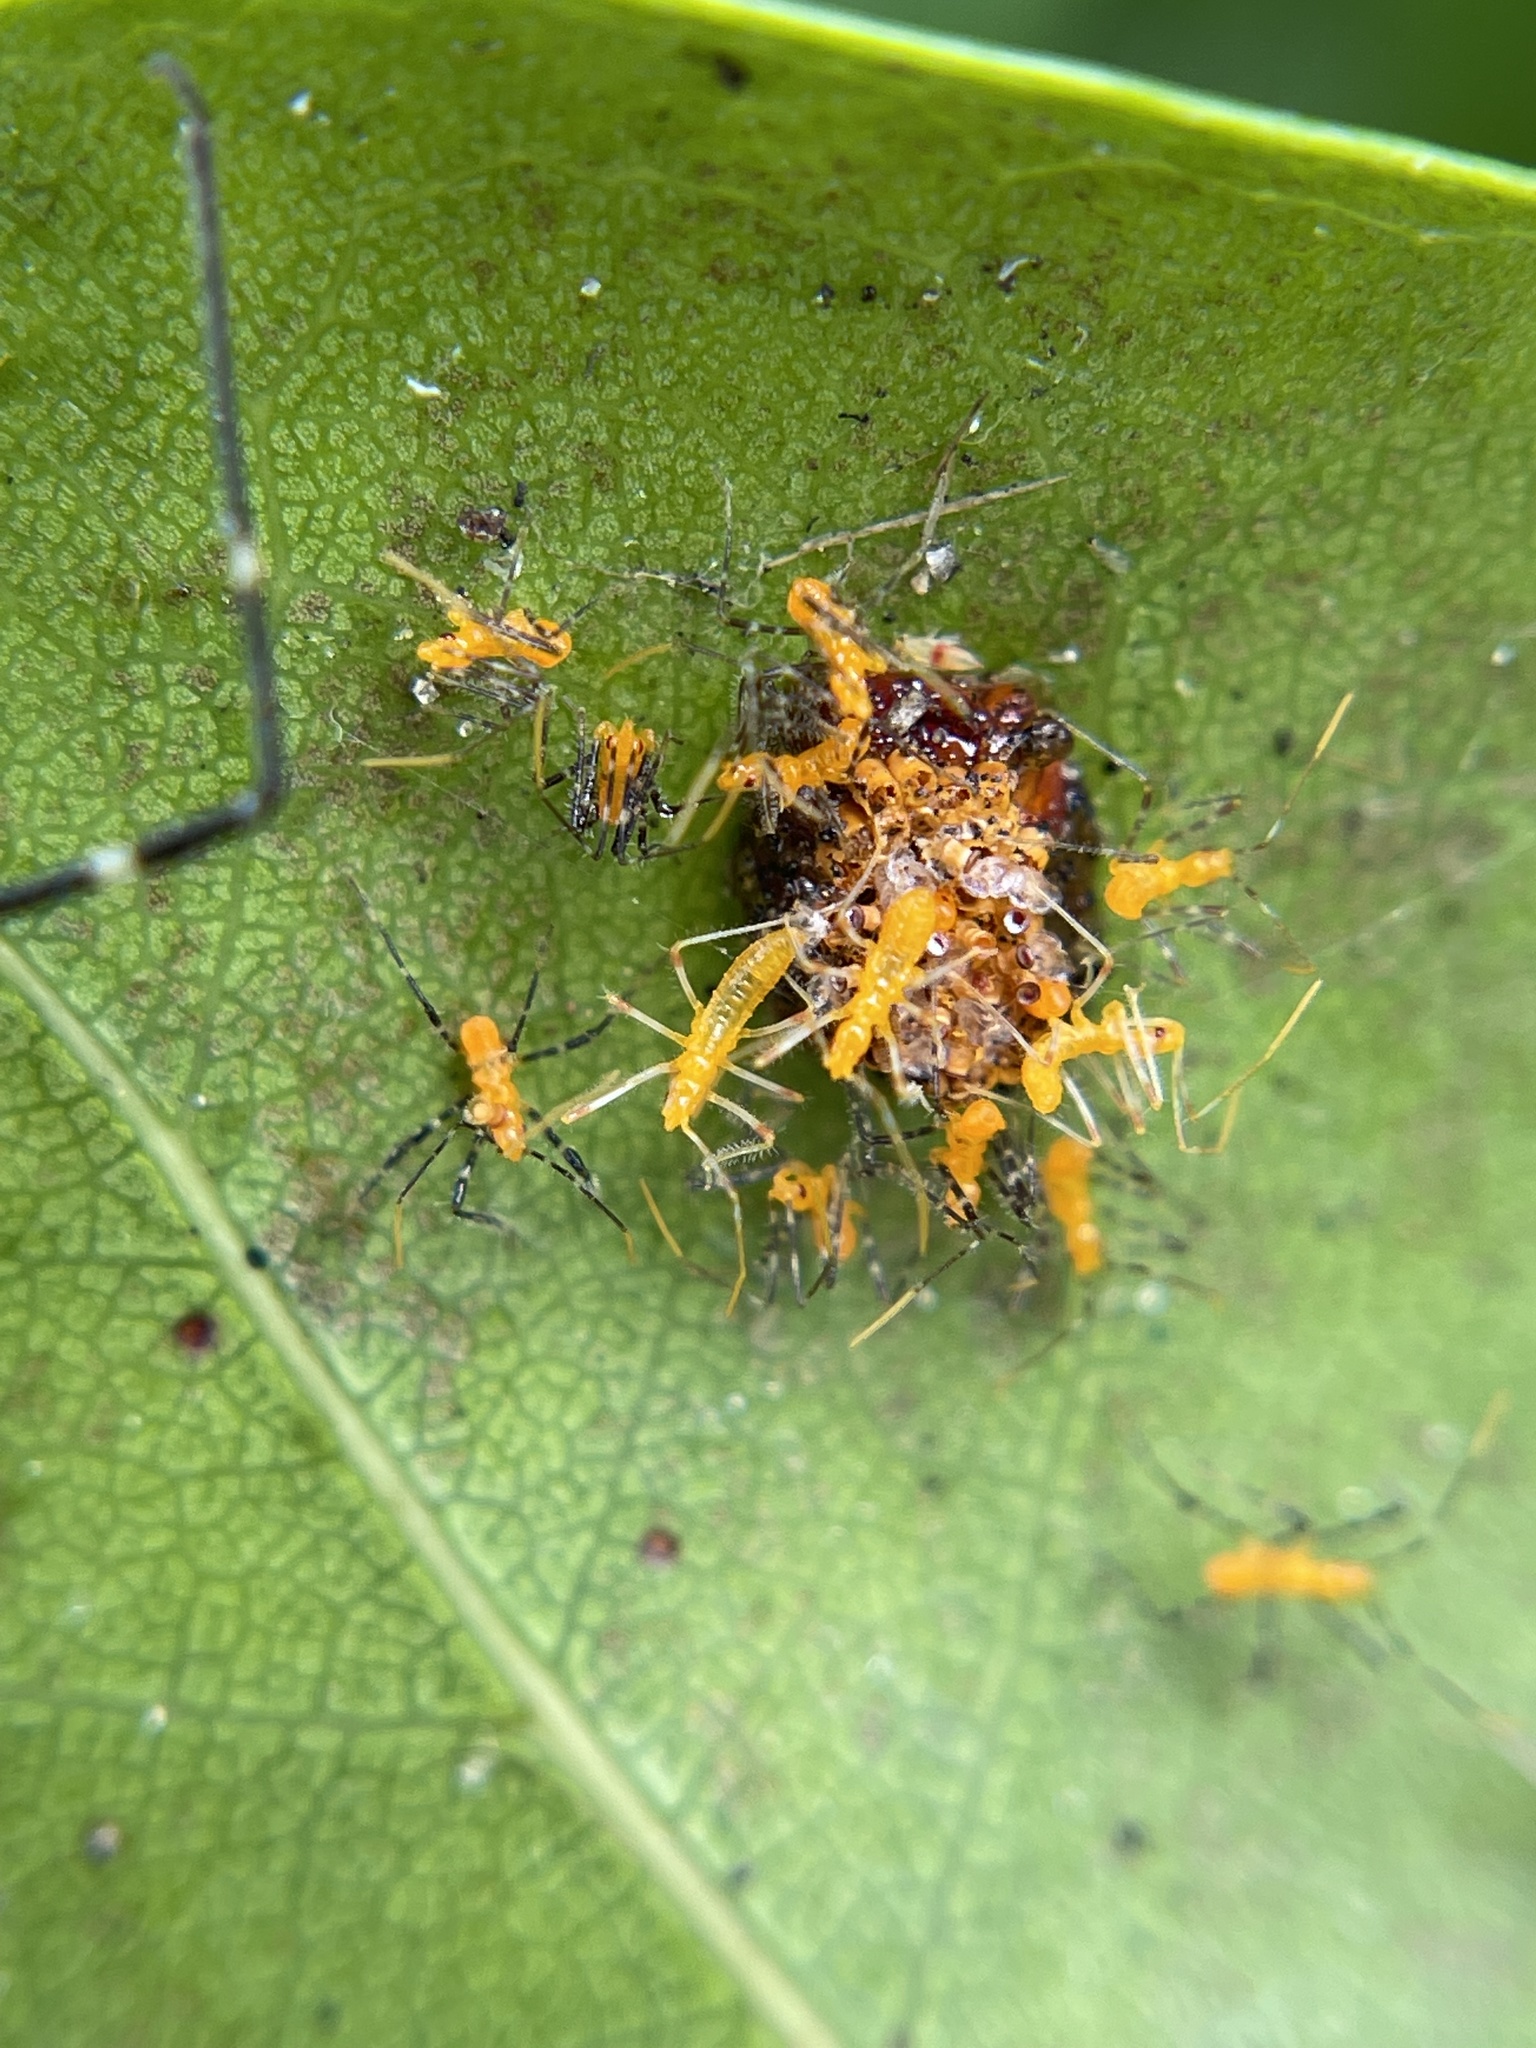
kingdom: Animalia
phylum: Arthropoda
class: Insecta
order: Hemiptera
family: Reduviidae
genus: Zelus
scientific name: Zelus longipes
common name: Milkweed assassin bug
